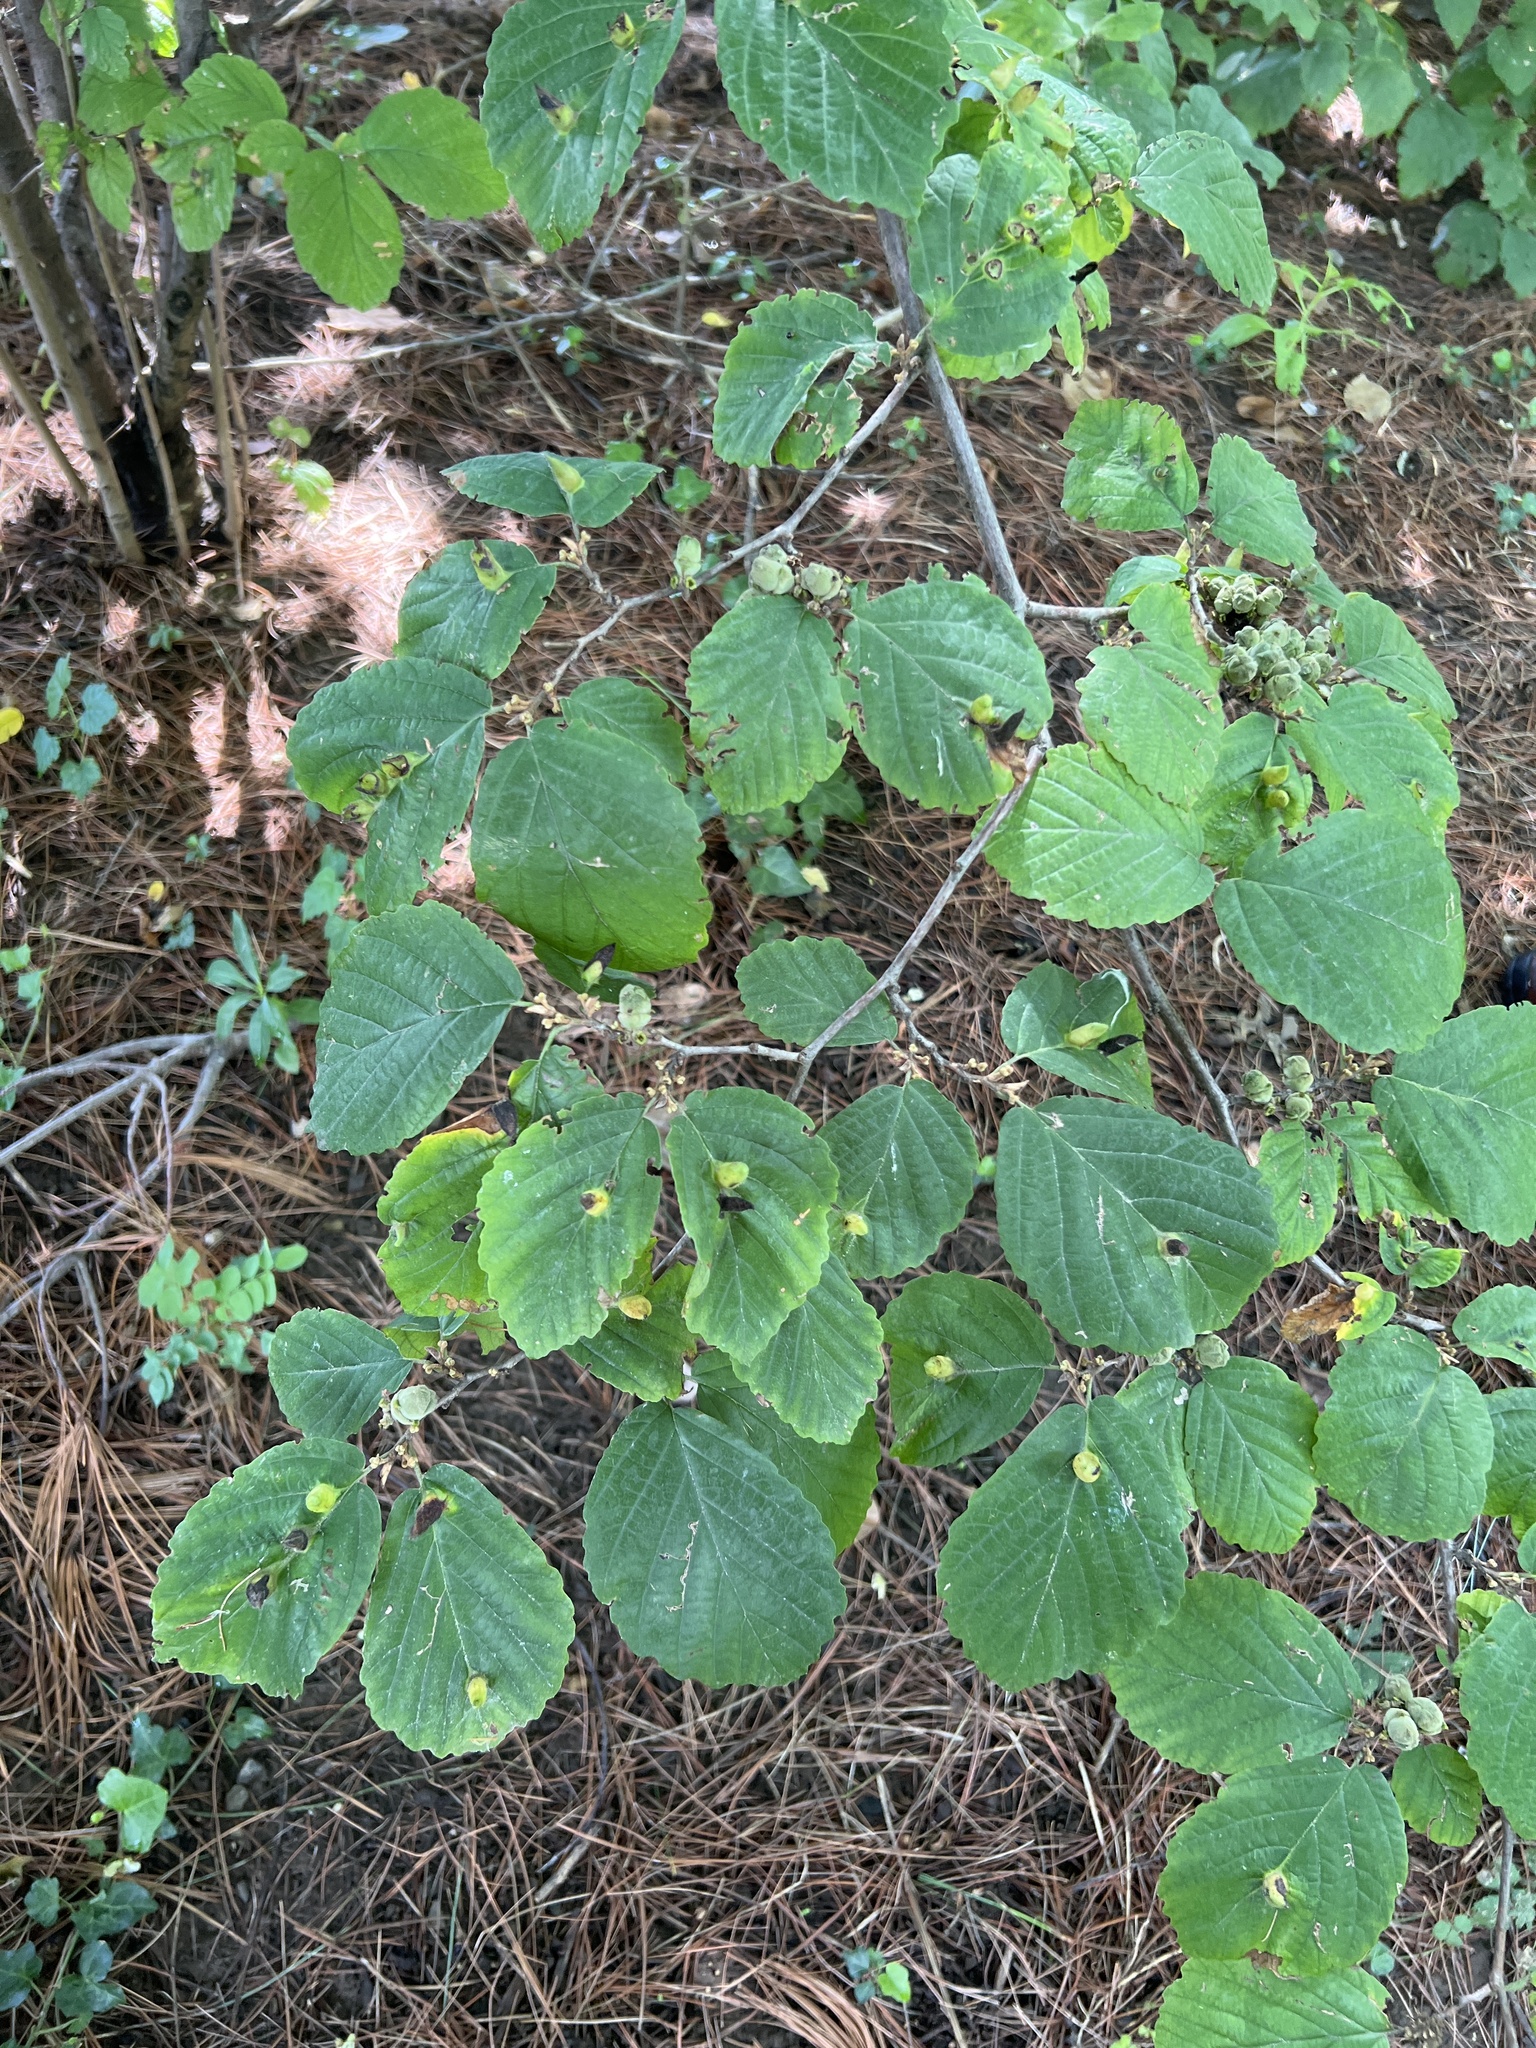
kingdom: Plantae
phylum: Tracheophyta
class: Magnoliopsida
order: Saxifragales
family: Hamamelidaceae
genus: Hamamelis
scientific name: Hamamelis virginiana
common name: Witch-hazel
